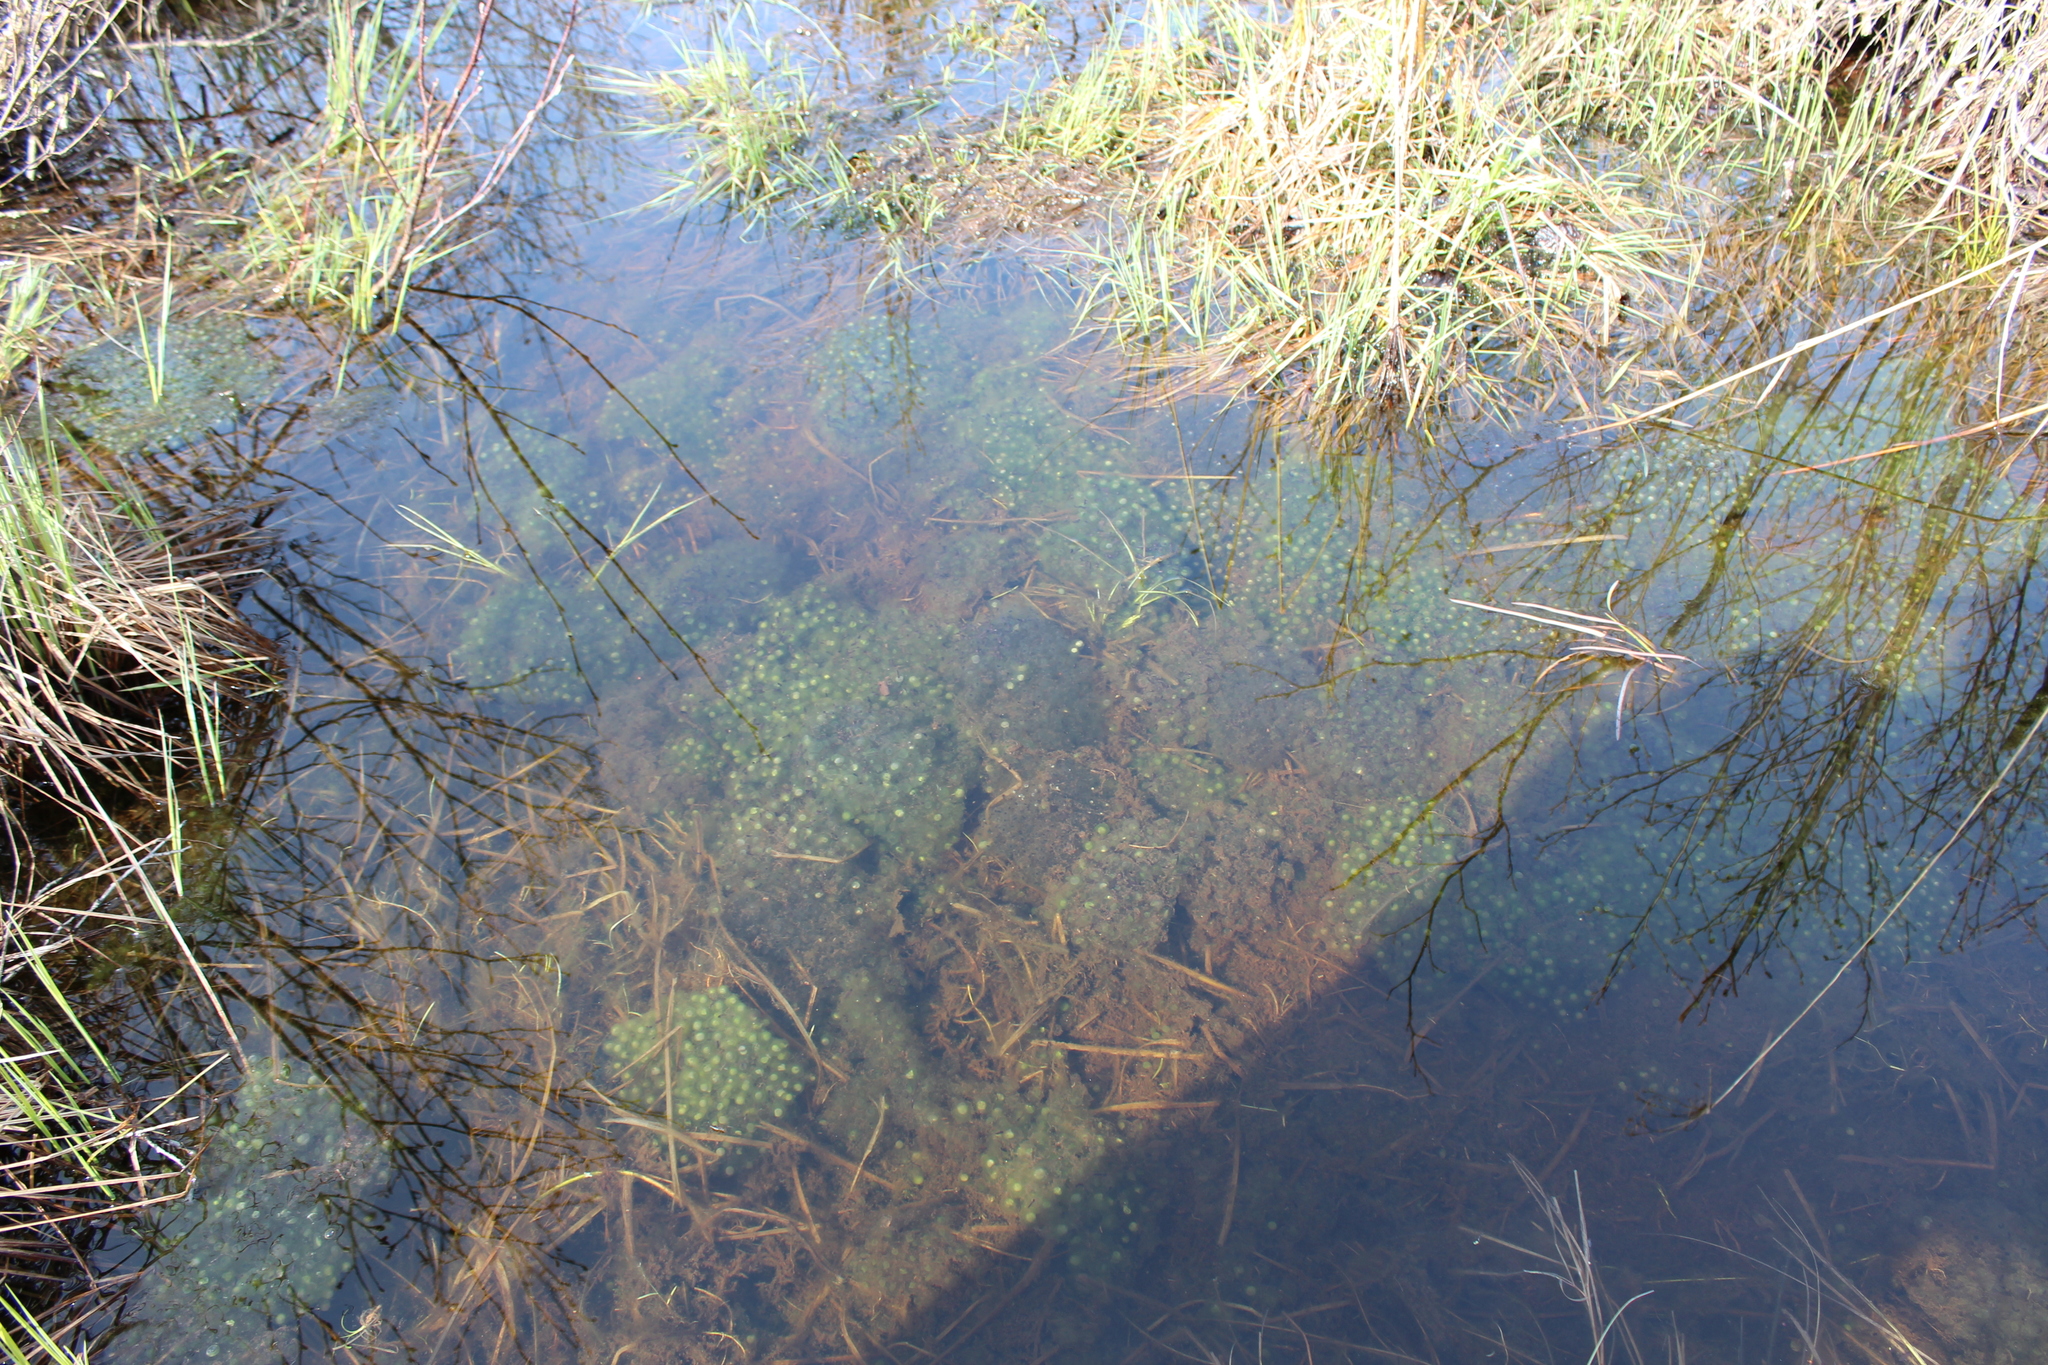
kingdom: Animalia
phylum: Chordata
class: Amphibia
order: Anura
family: Ranidae
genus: Lithobates
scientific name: Lithobates sylvaticus
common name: Wood frog
